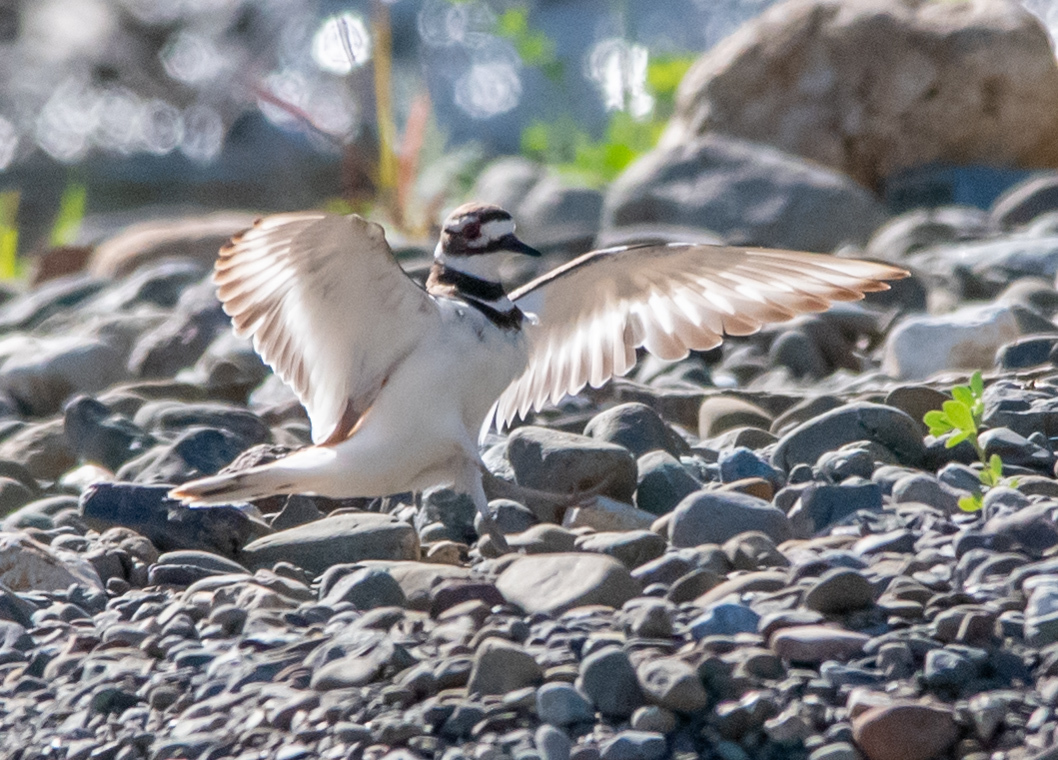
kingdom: Animalia
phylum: Chordata
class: Aves
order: Charadriiformes
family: Charadriidae
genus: Charadrius
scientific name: Charadrius vociferus
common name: Killdeer
